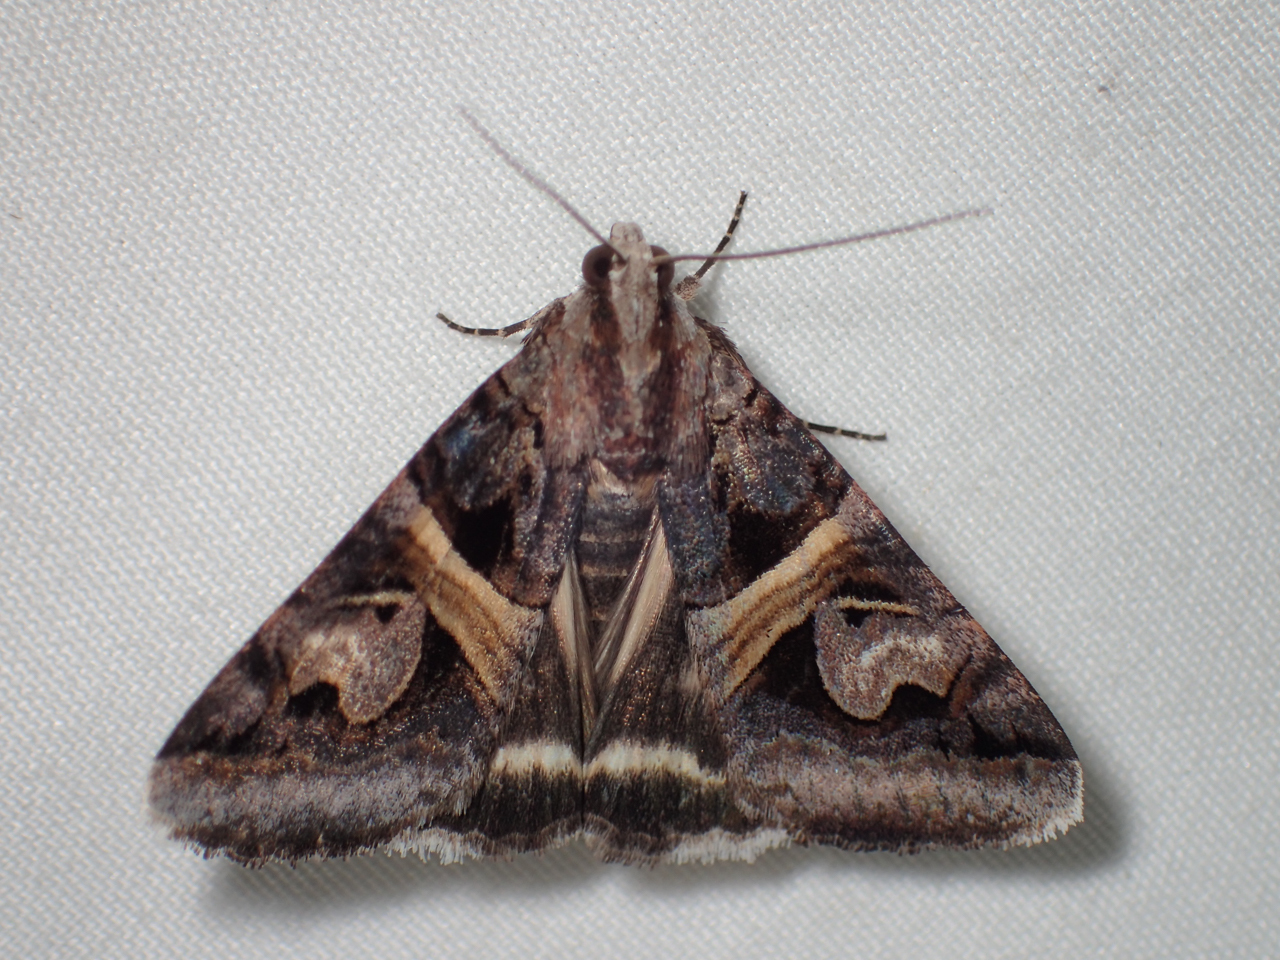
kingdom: Animalia
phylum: Arthropoda
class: Insecta
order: Lepidoptera
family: Erebidae
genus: Drasteria
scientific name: Drasteria grandirena
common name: Figure-seven moth
